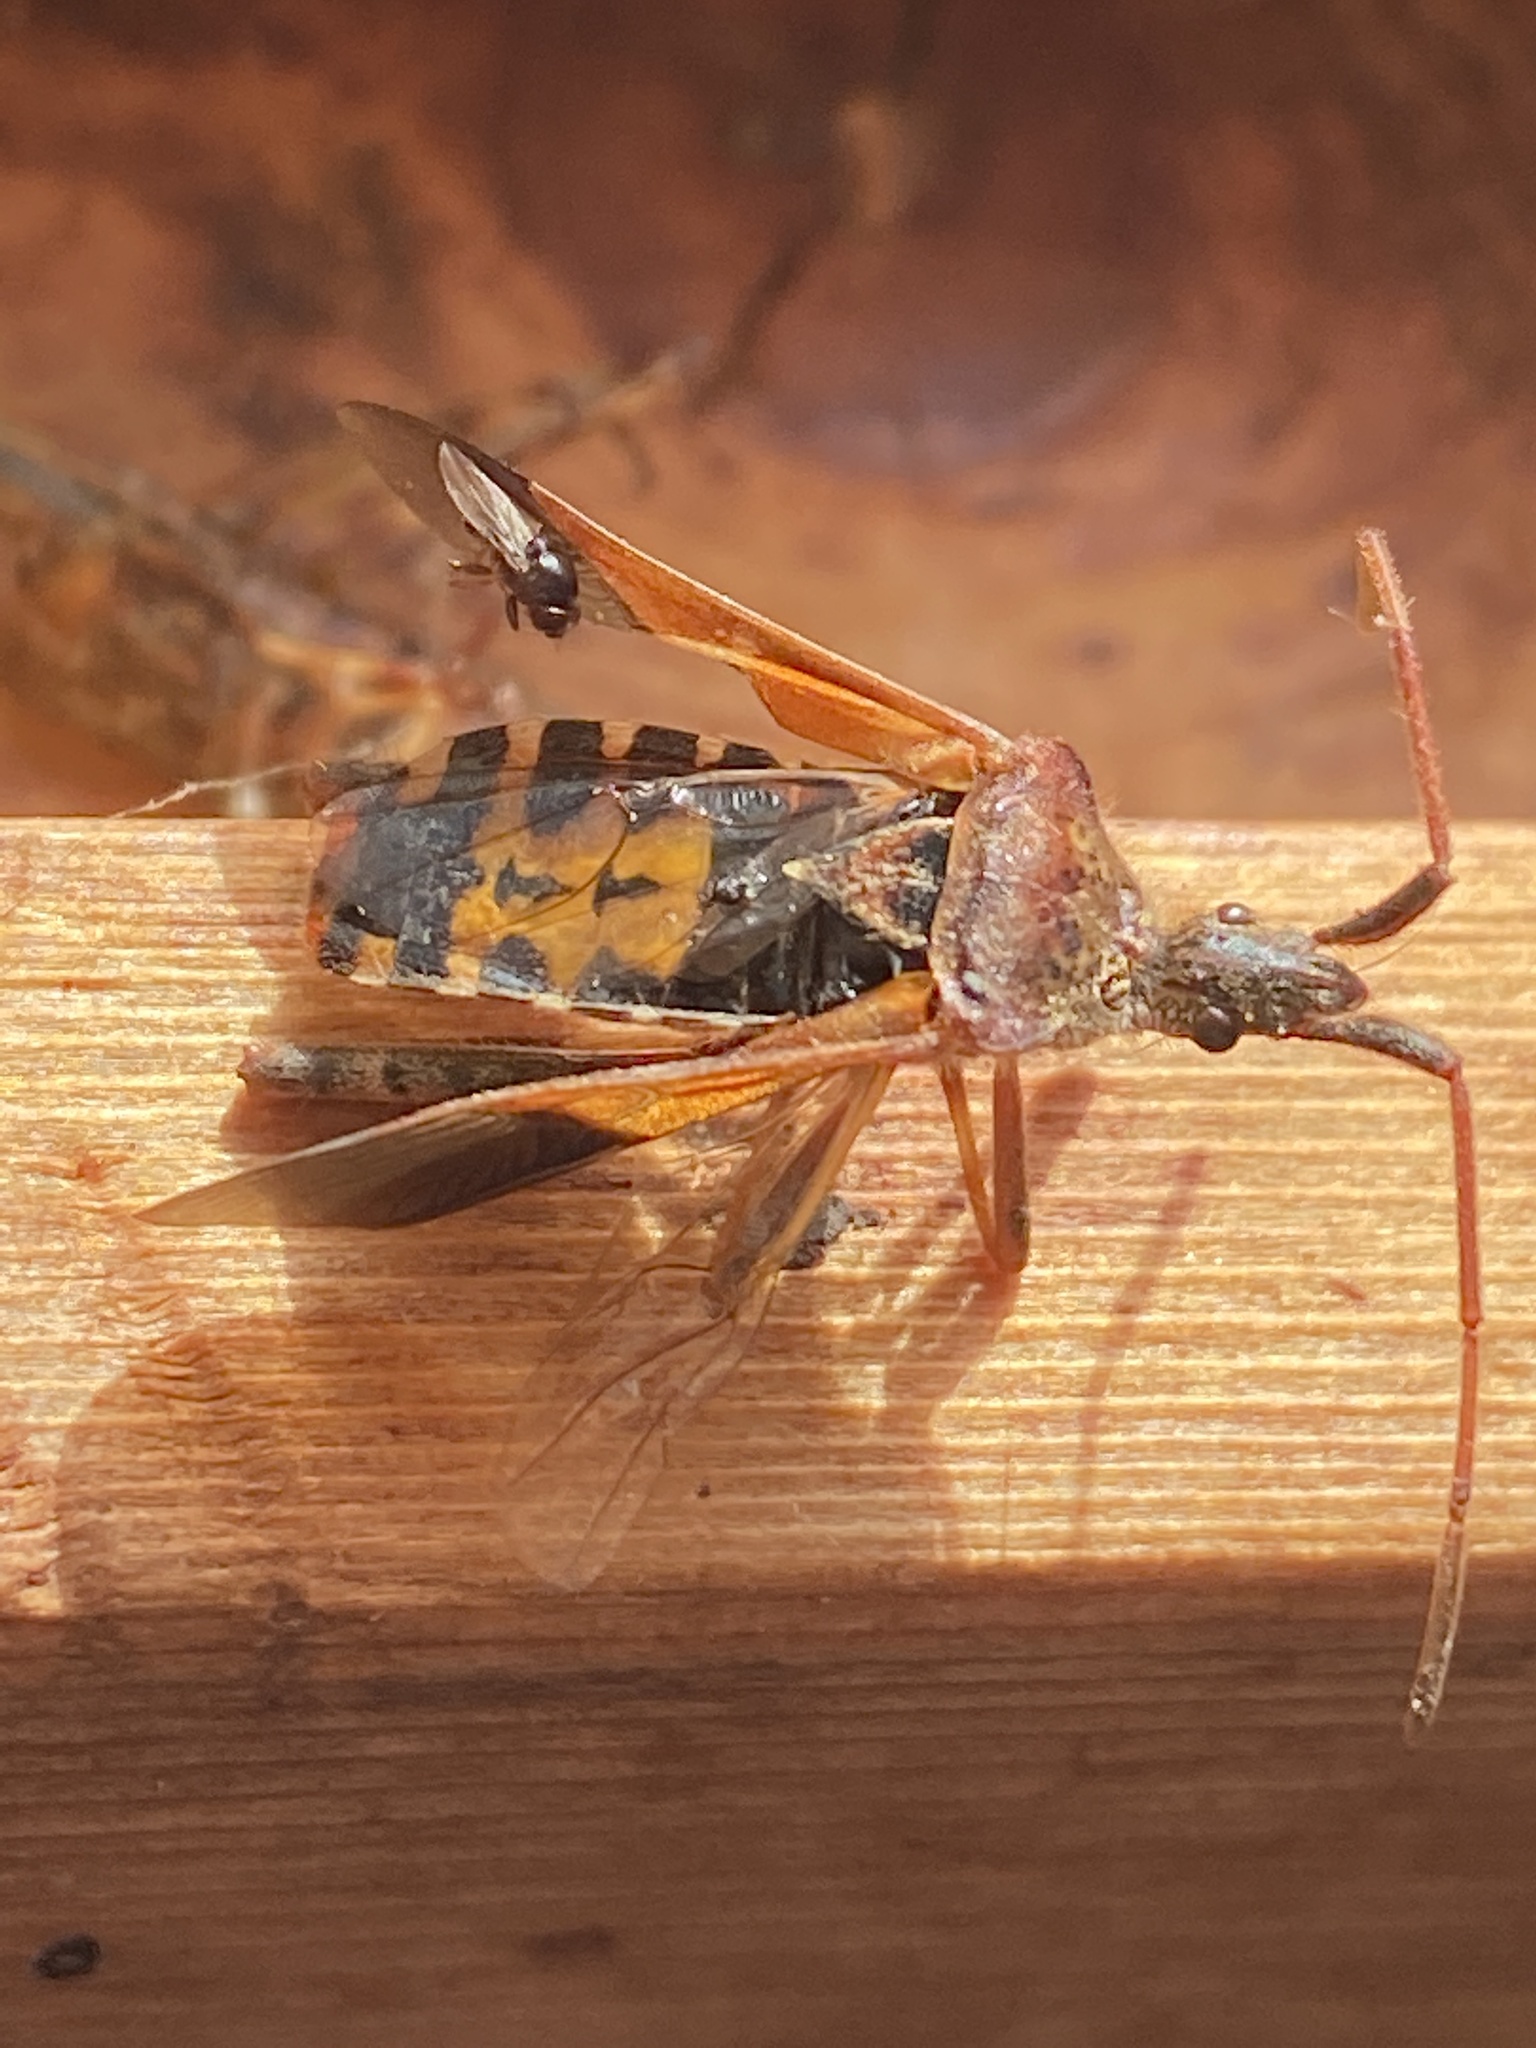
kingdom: Animalia
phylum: Arthropoda
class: Insecta
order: Hemiptera
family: Coreidae
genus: Leptoglossus
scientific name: Leptoglossus occidentalis
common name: Western conifer-seed bug
